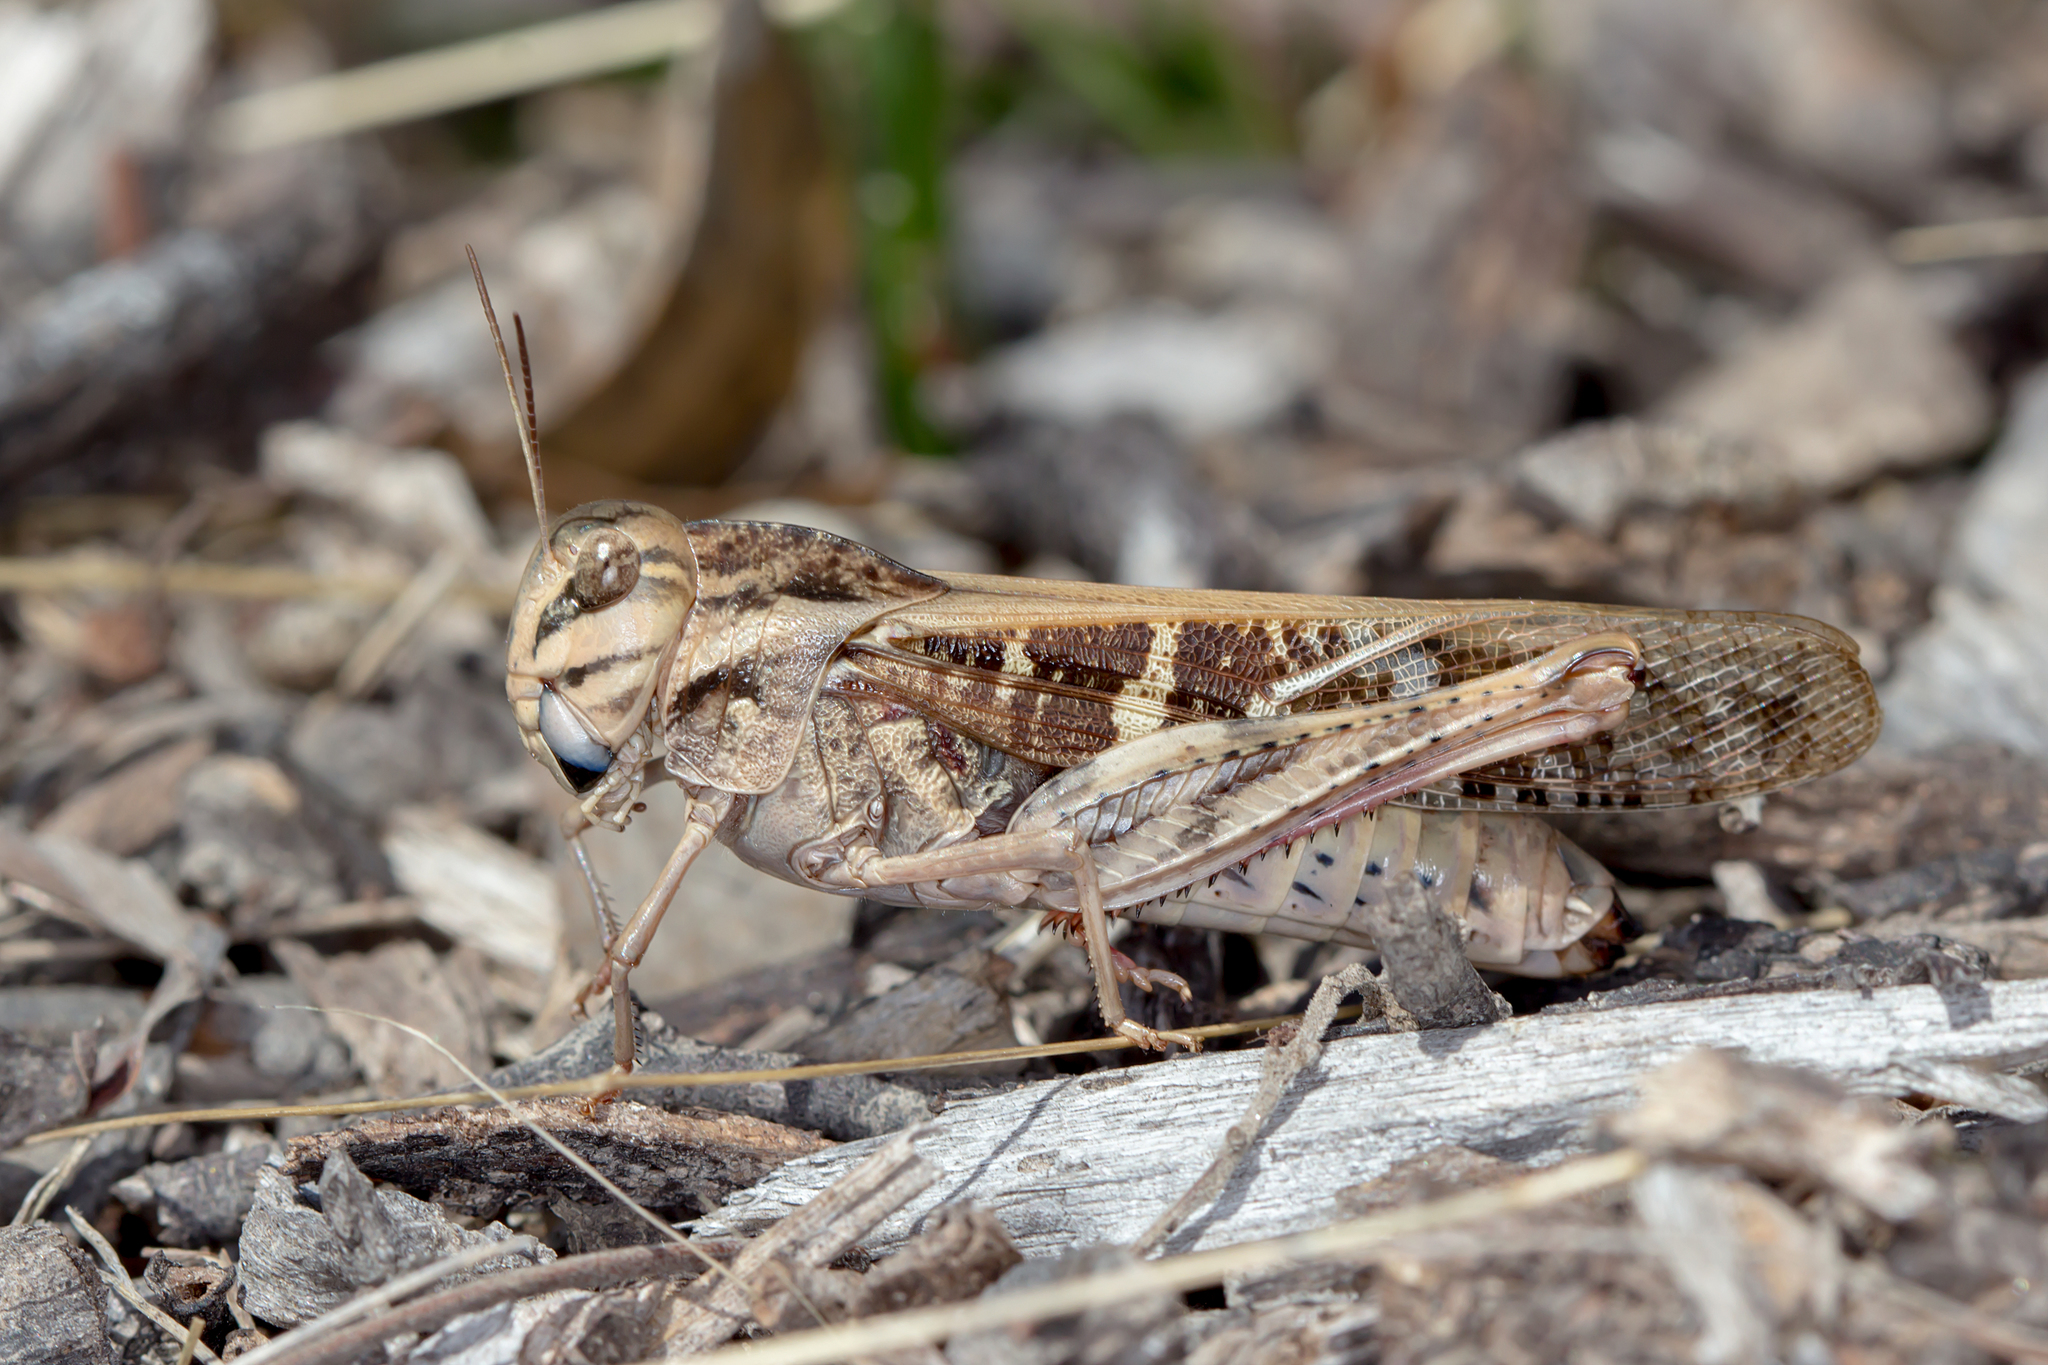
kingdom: Animalia
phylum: Arthropoda
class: Insecta
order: Orthoptera
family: Acrididae
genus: Gastrimargus
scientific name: Gastrimargus musicus
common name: Yellow-winged locust
